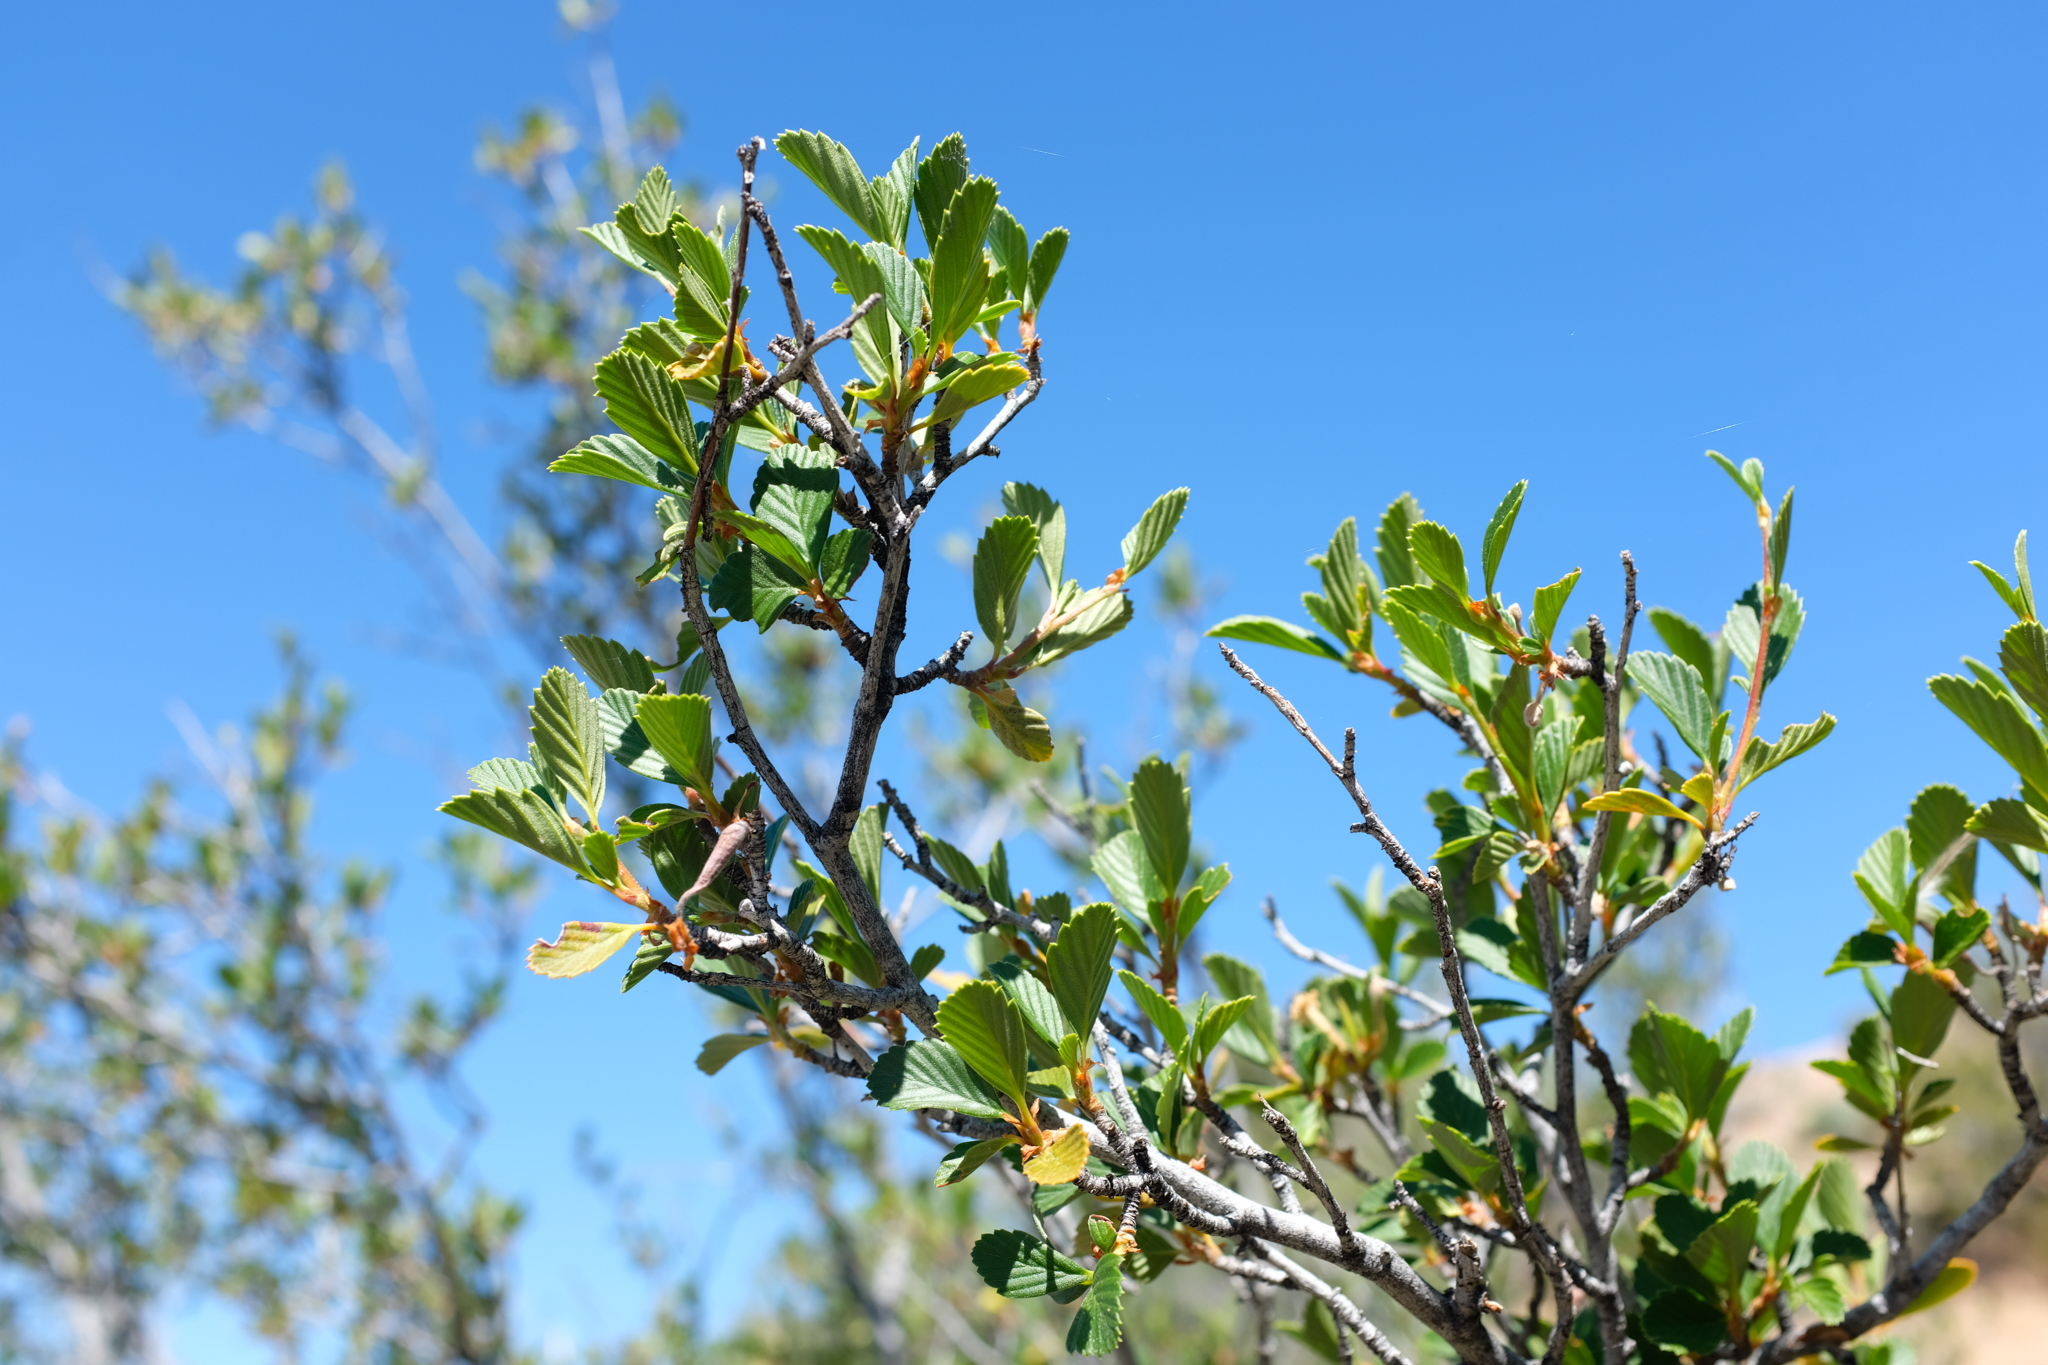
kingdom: Plantae
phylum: Tracheophyta
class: Magnoliopsida
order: Rosales
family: Rosaceae
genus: Cercocarpus
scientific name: Cercocarpus betuloides
